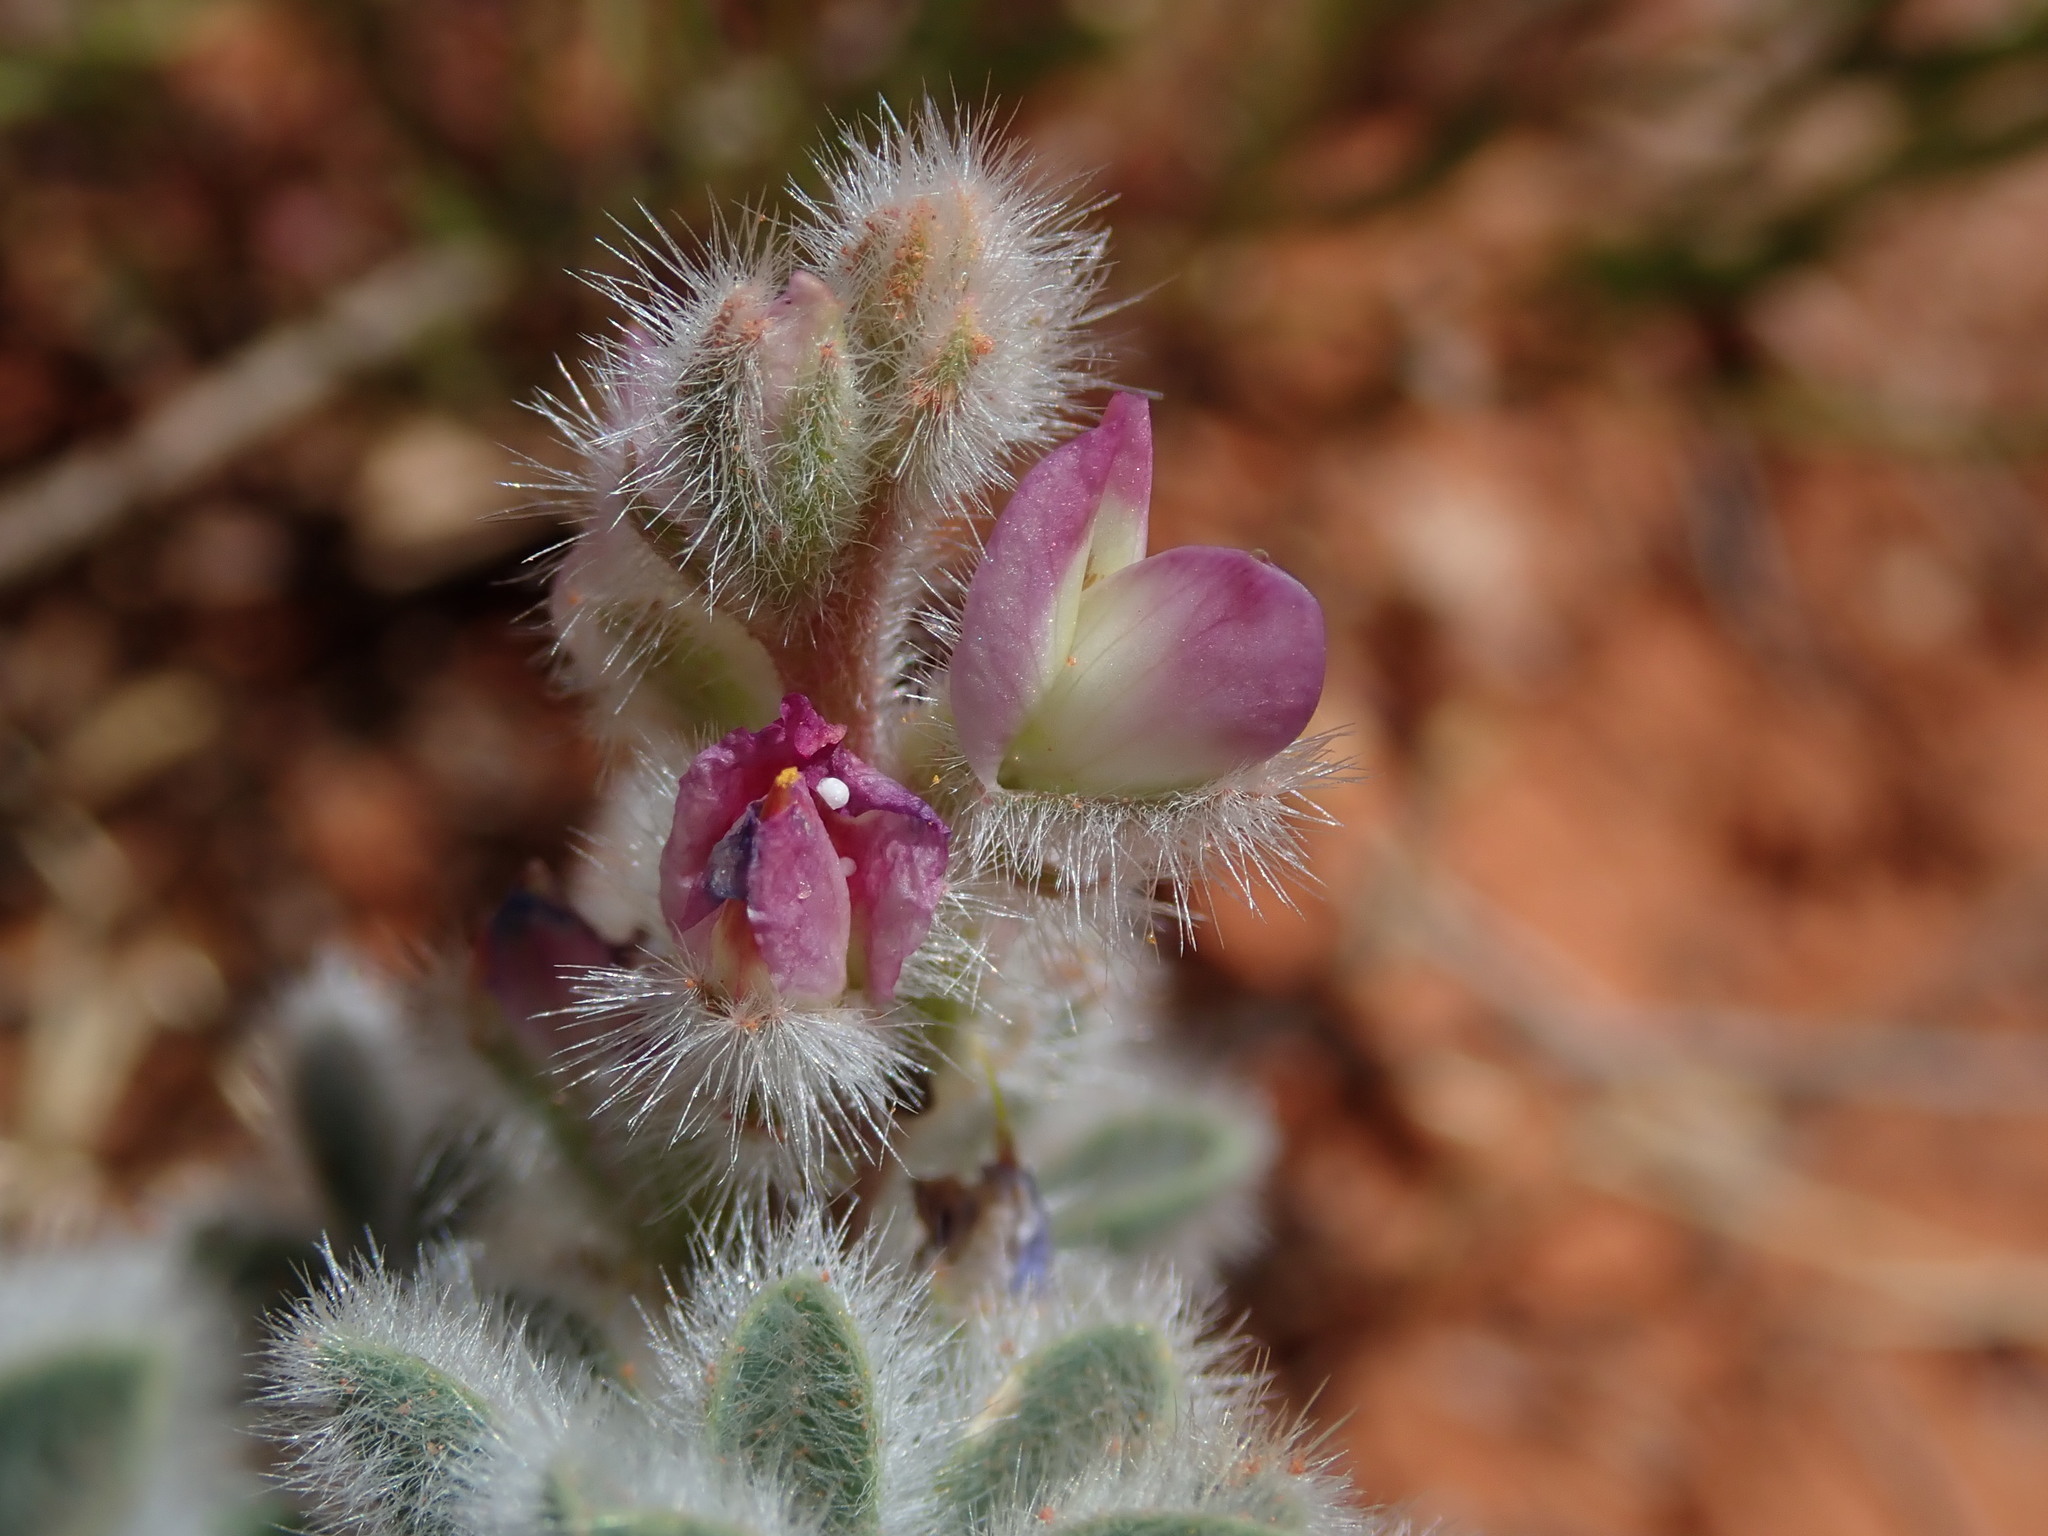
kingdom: Plantae
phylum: Tracheophyta
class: Magnoliopsida
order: Fabales
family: Fabaceae
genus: Lupinus
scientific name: Lupinus concinnus
